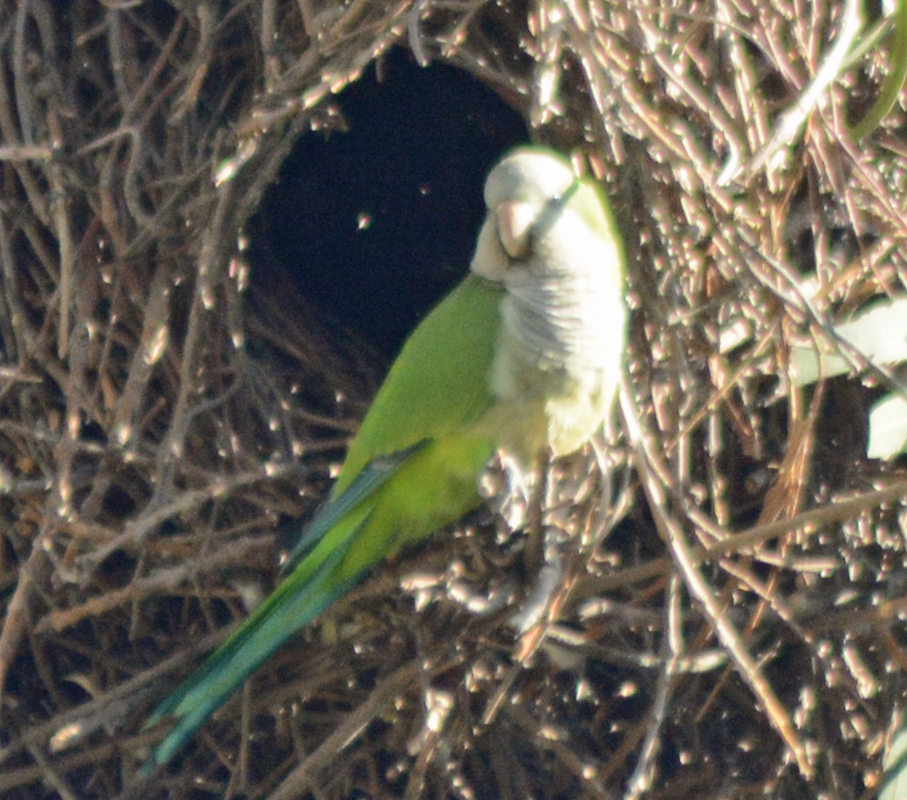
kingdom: Animalia
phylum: Chordata
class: Aves
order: Psittaciformes
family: Psittacidae
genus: Myiopsitta
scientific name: Myiopsitta monachus
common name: Monk parakeet
